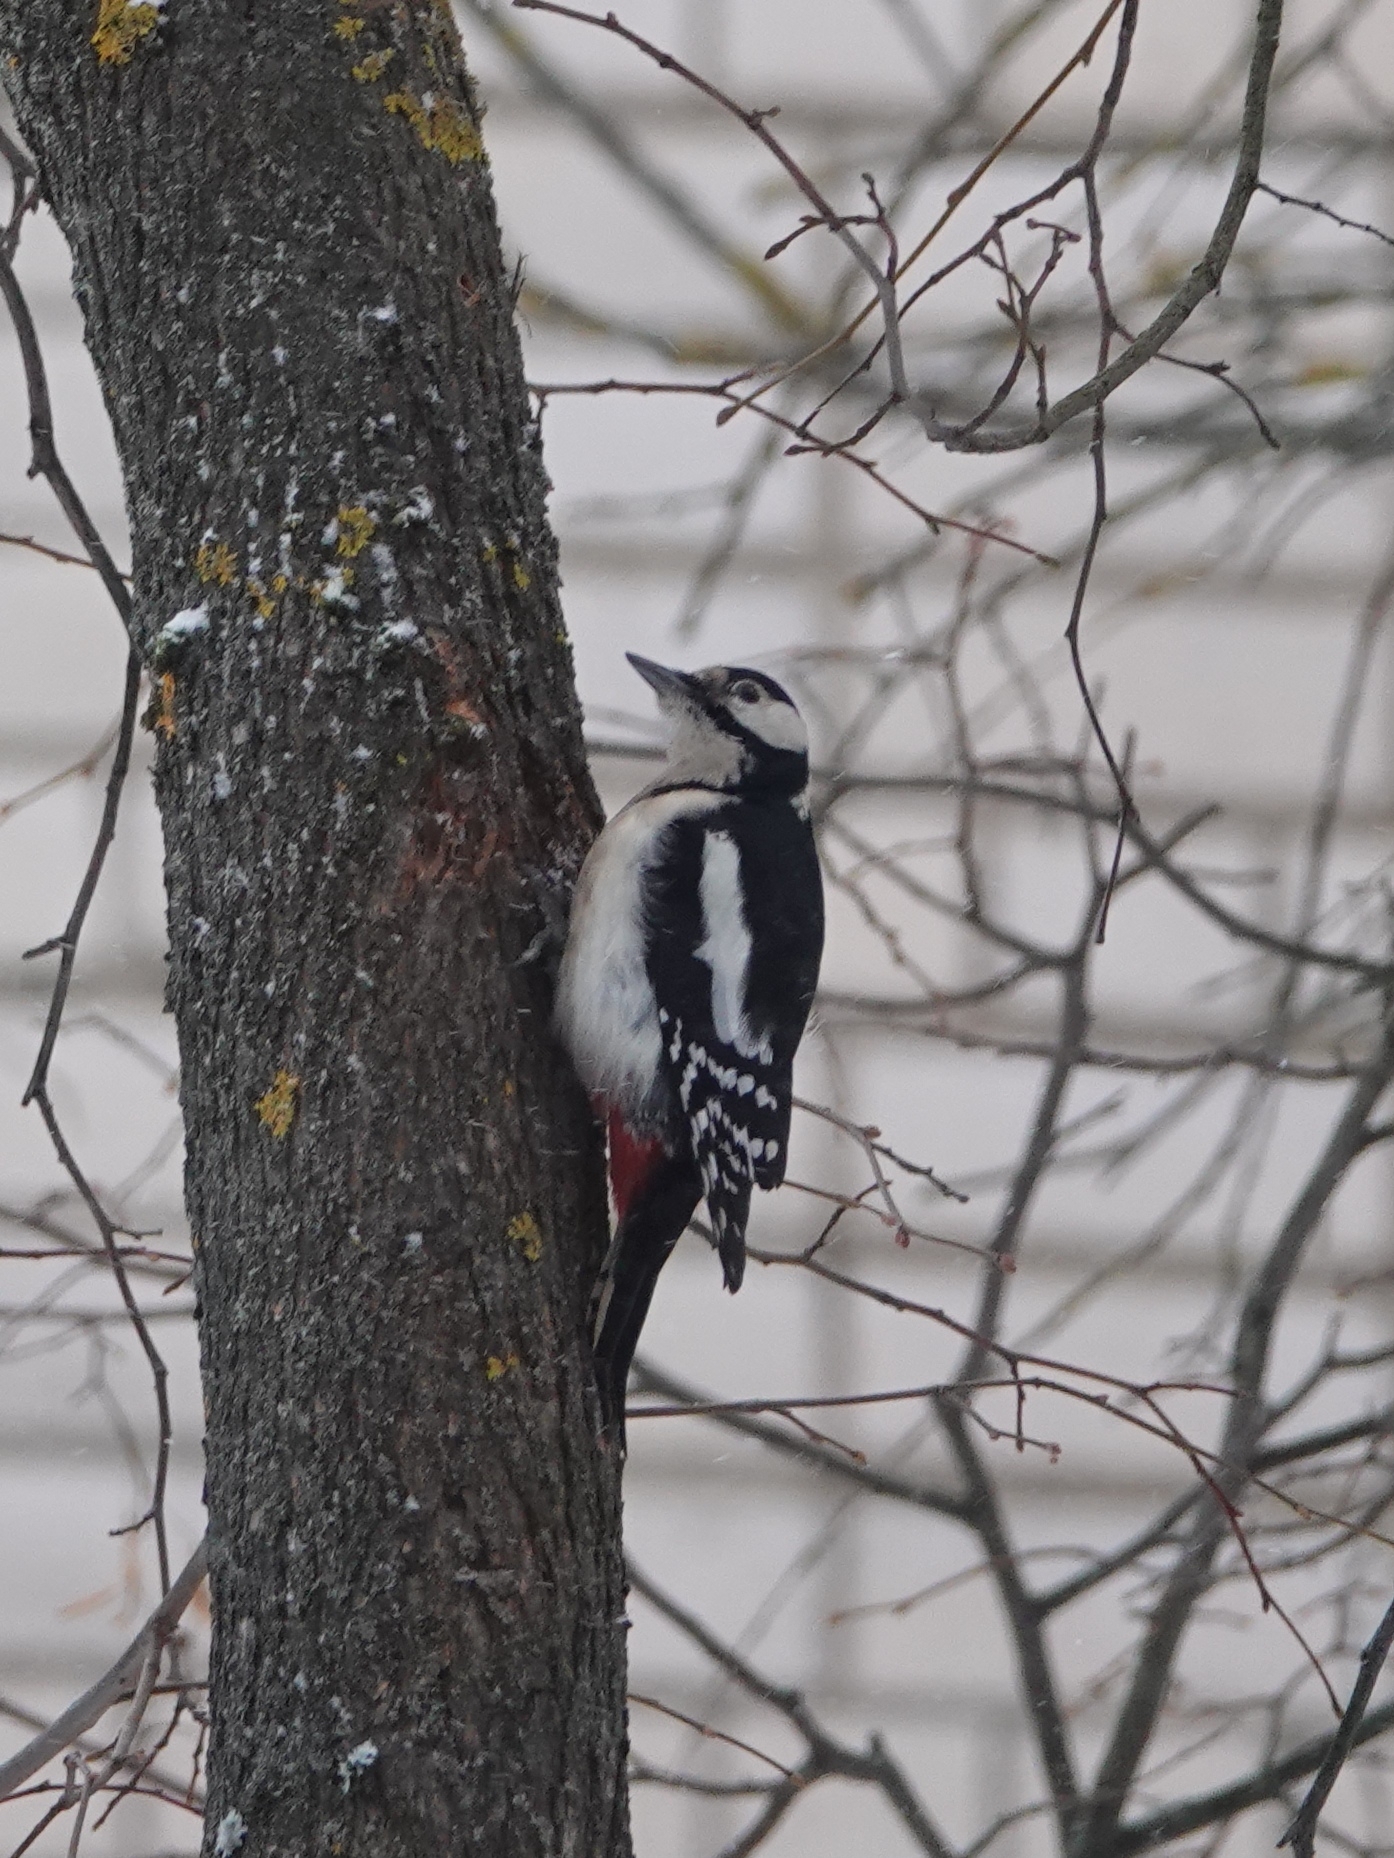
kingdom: Animalia
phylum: Chordata
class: Aves
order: Piciformes
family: Picidae
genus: Dendrocopos
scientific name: Dendrocopos major
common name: Great spotted woodpecker
